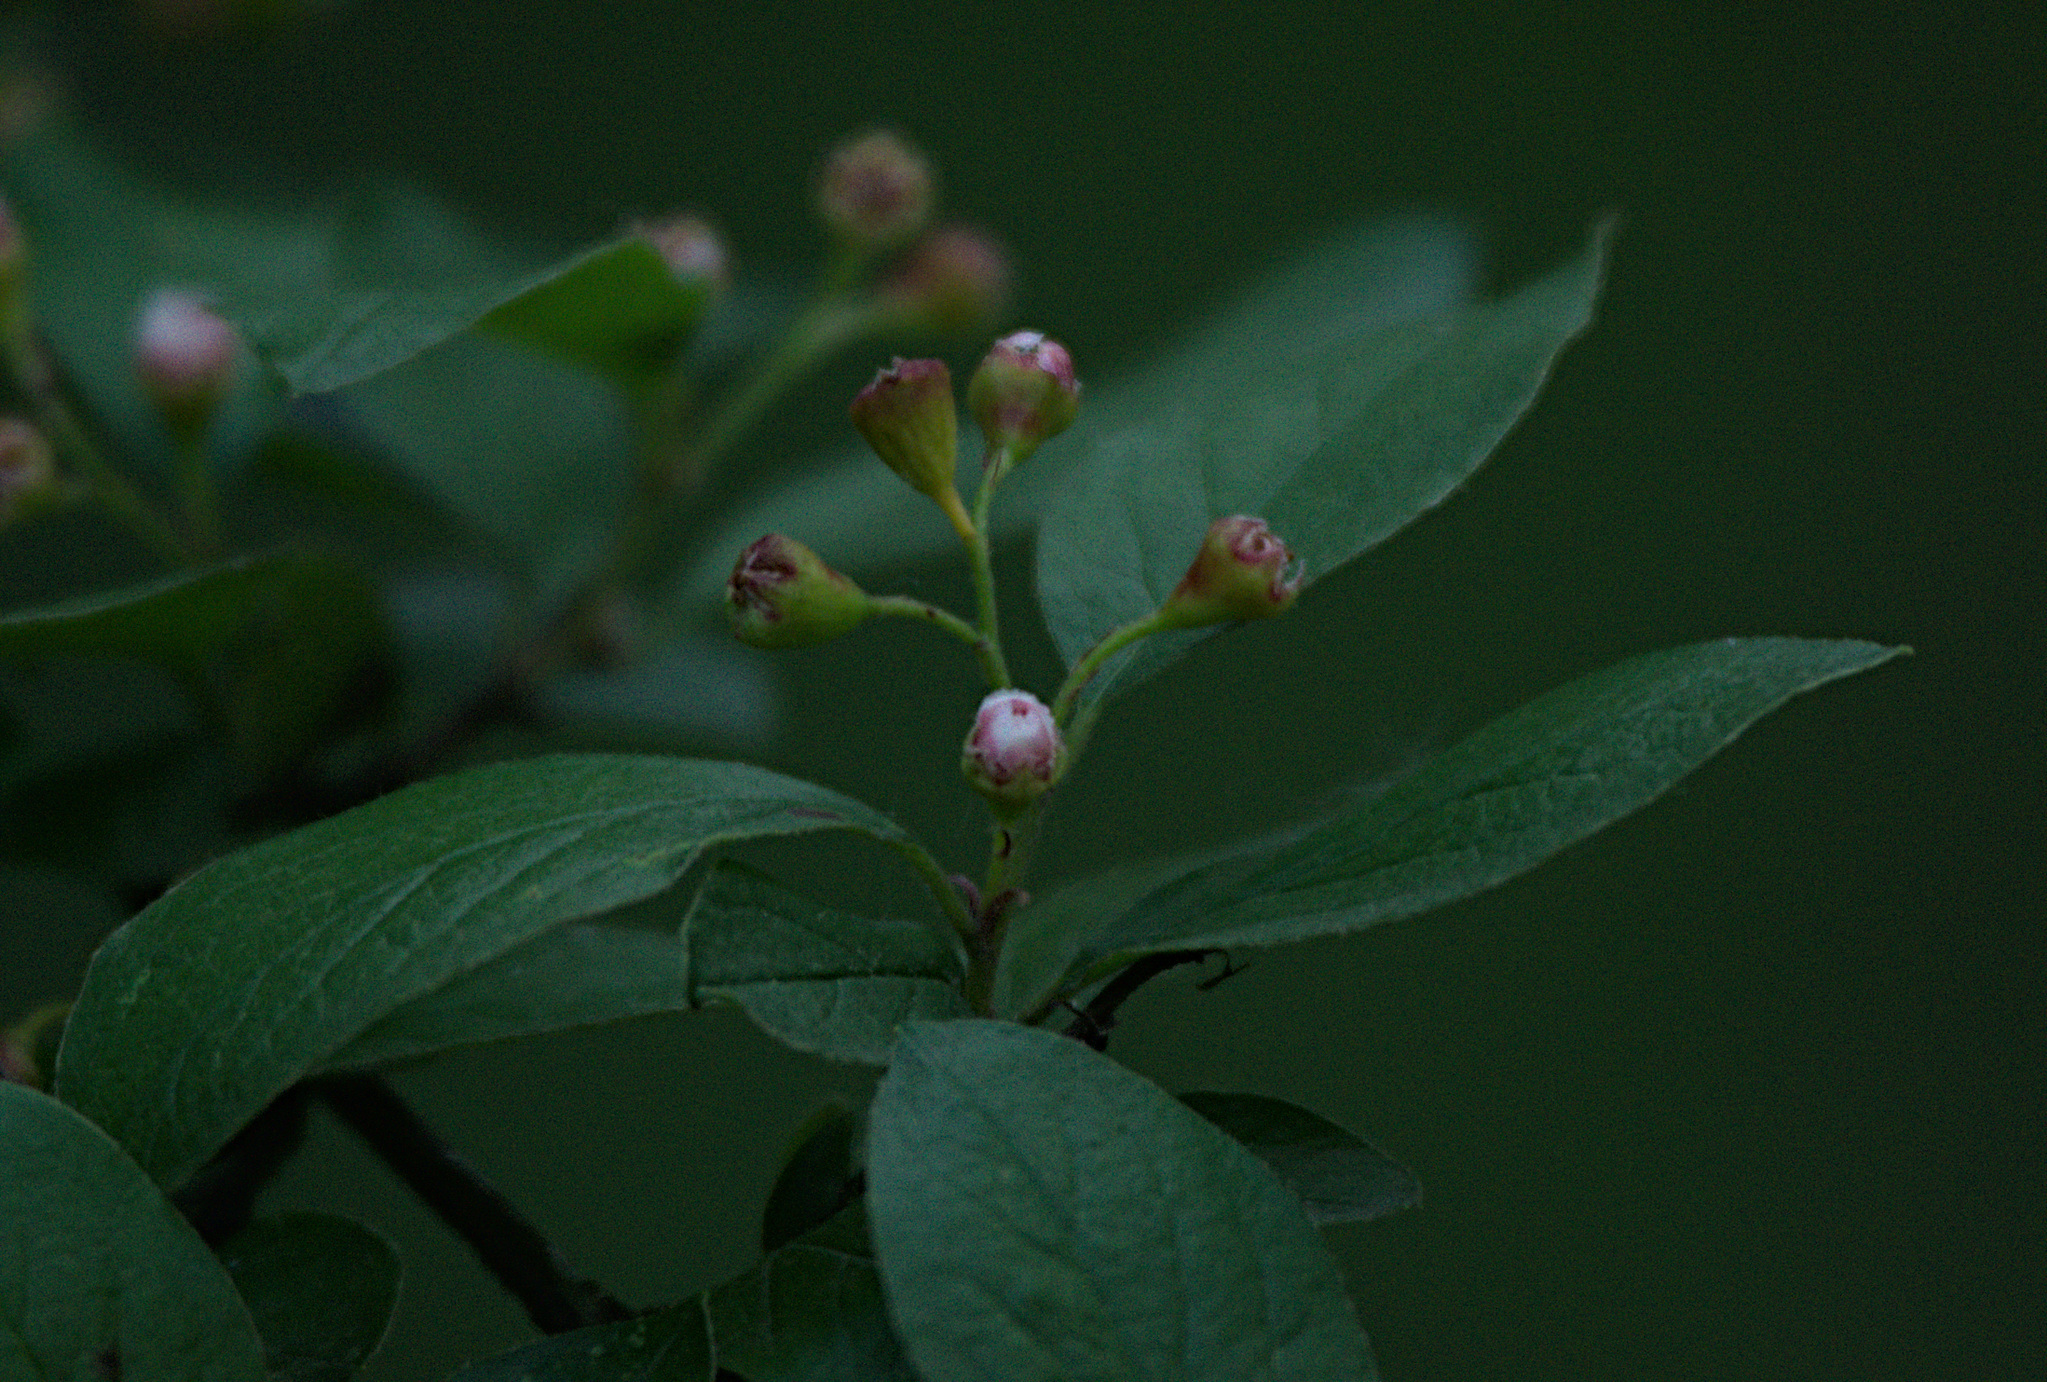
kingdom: Plantae
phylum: Tracheophyta
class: Magnoliopsida
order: Rosales
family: Rosaceae
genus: Cotoneaster
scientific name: Cotoneaster acutifolius
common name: Peking cotoneaster
